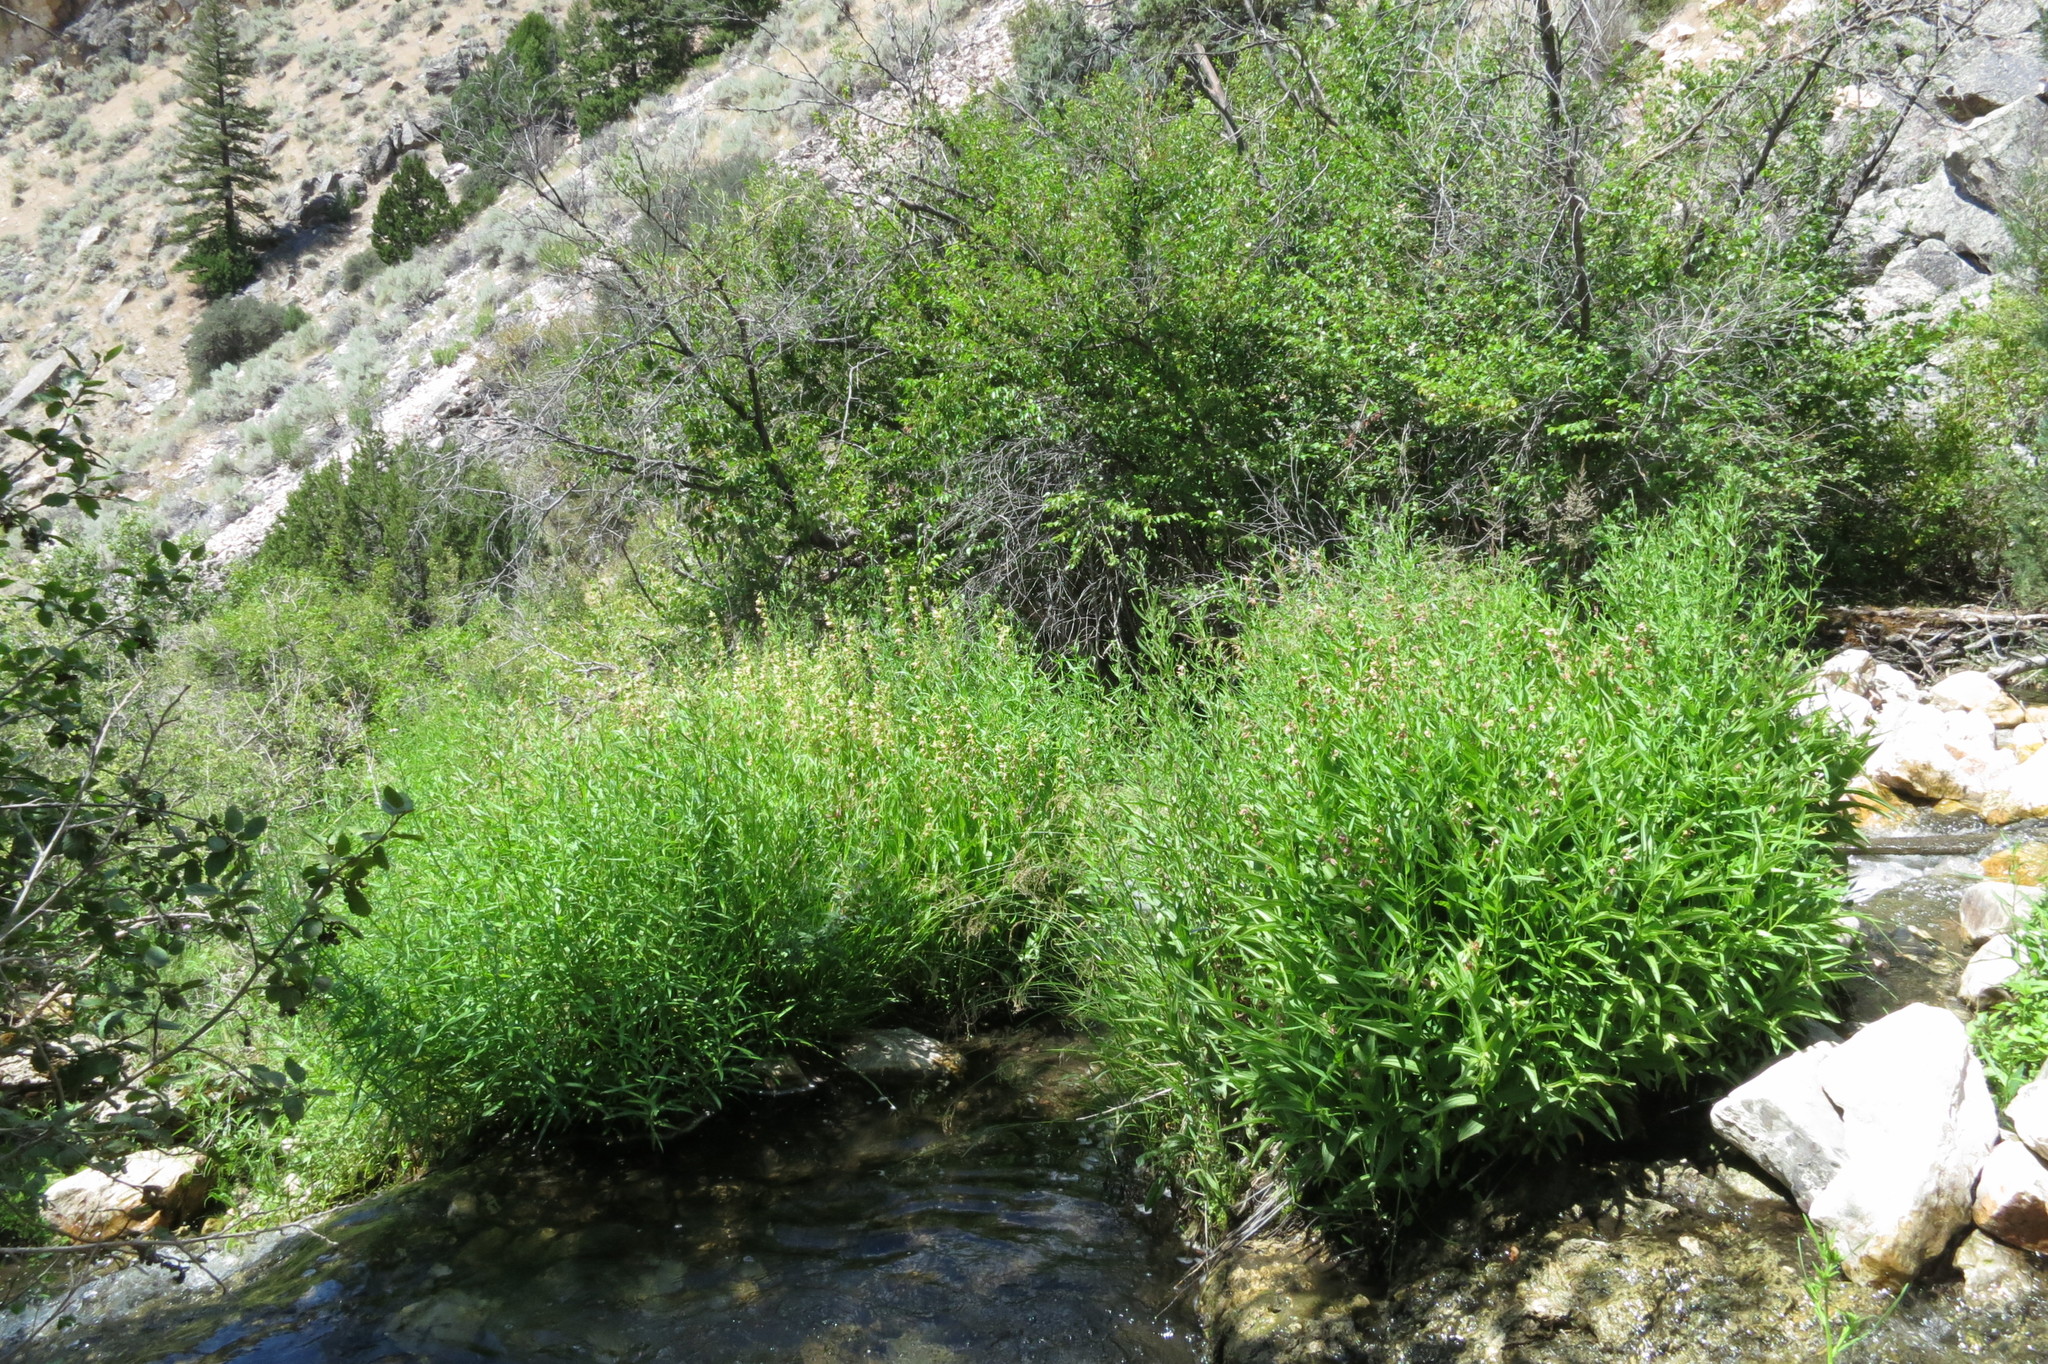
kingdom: Plantae
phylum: Tracheophyta
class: Liliopsida
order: Asparagales
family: Orchidaceae
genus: Epipactis
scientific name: Epipactis gigantea
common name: Chatterbox
